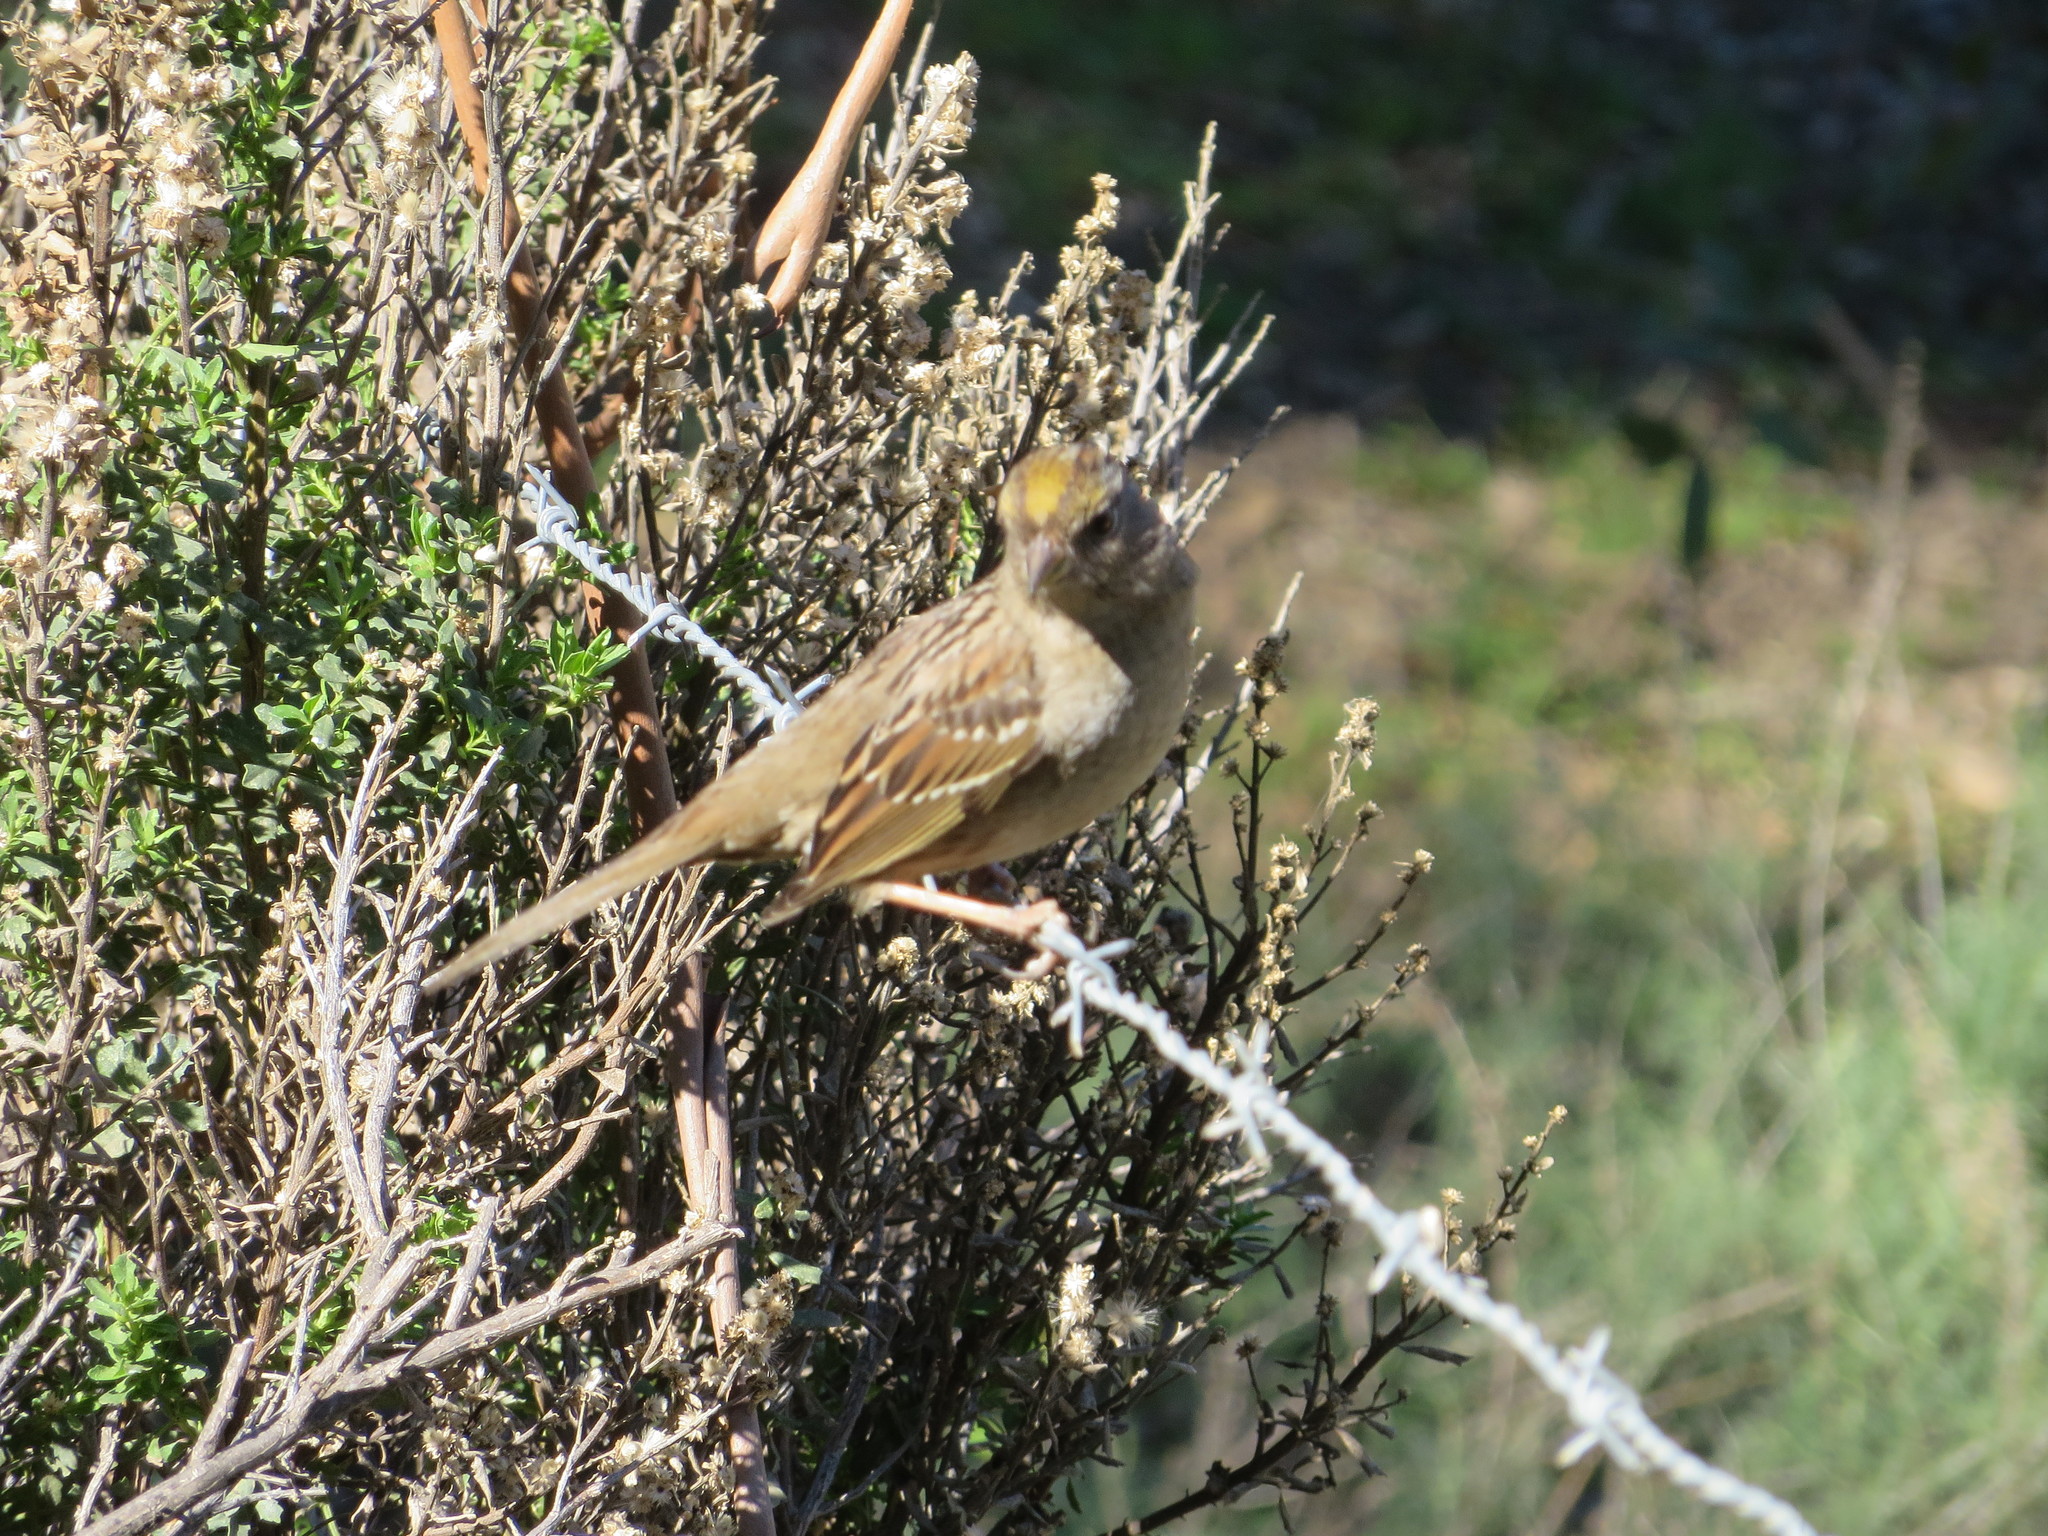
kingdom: Animalia
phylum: Chordata
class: Aves
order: Passeriformes
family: Passerellidae
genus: Zonotrichia
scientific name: Zonotrichia atricapilla
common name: Golden-crowned sparrow
